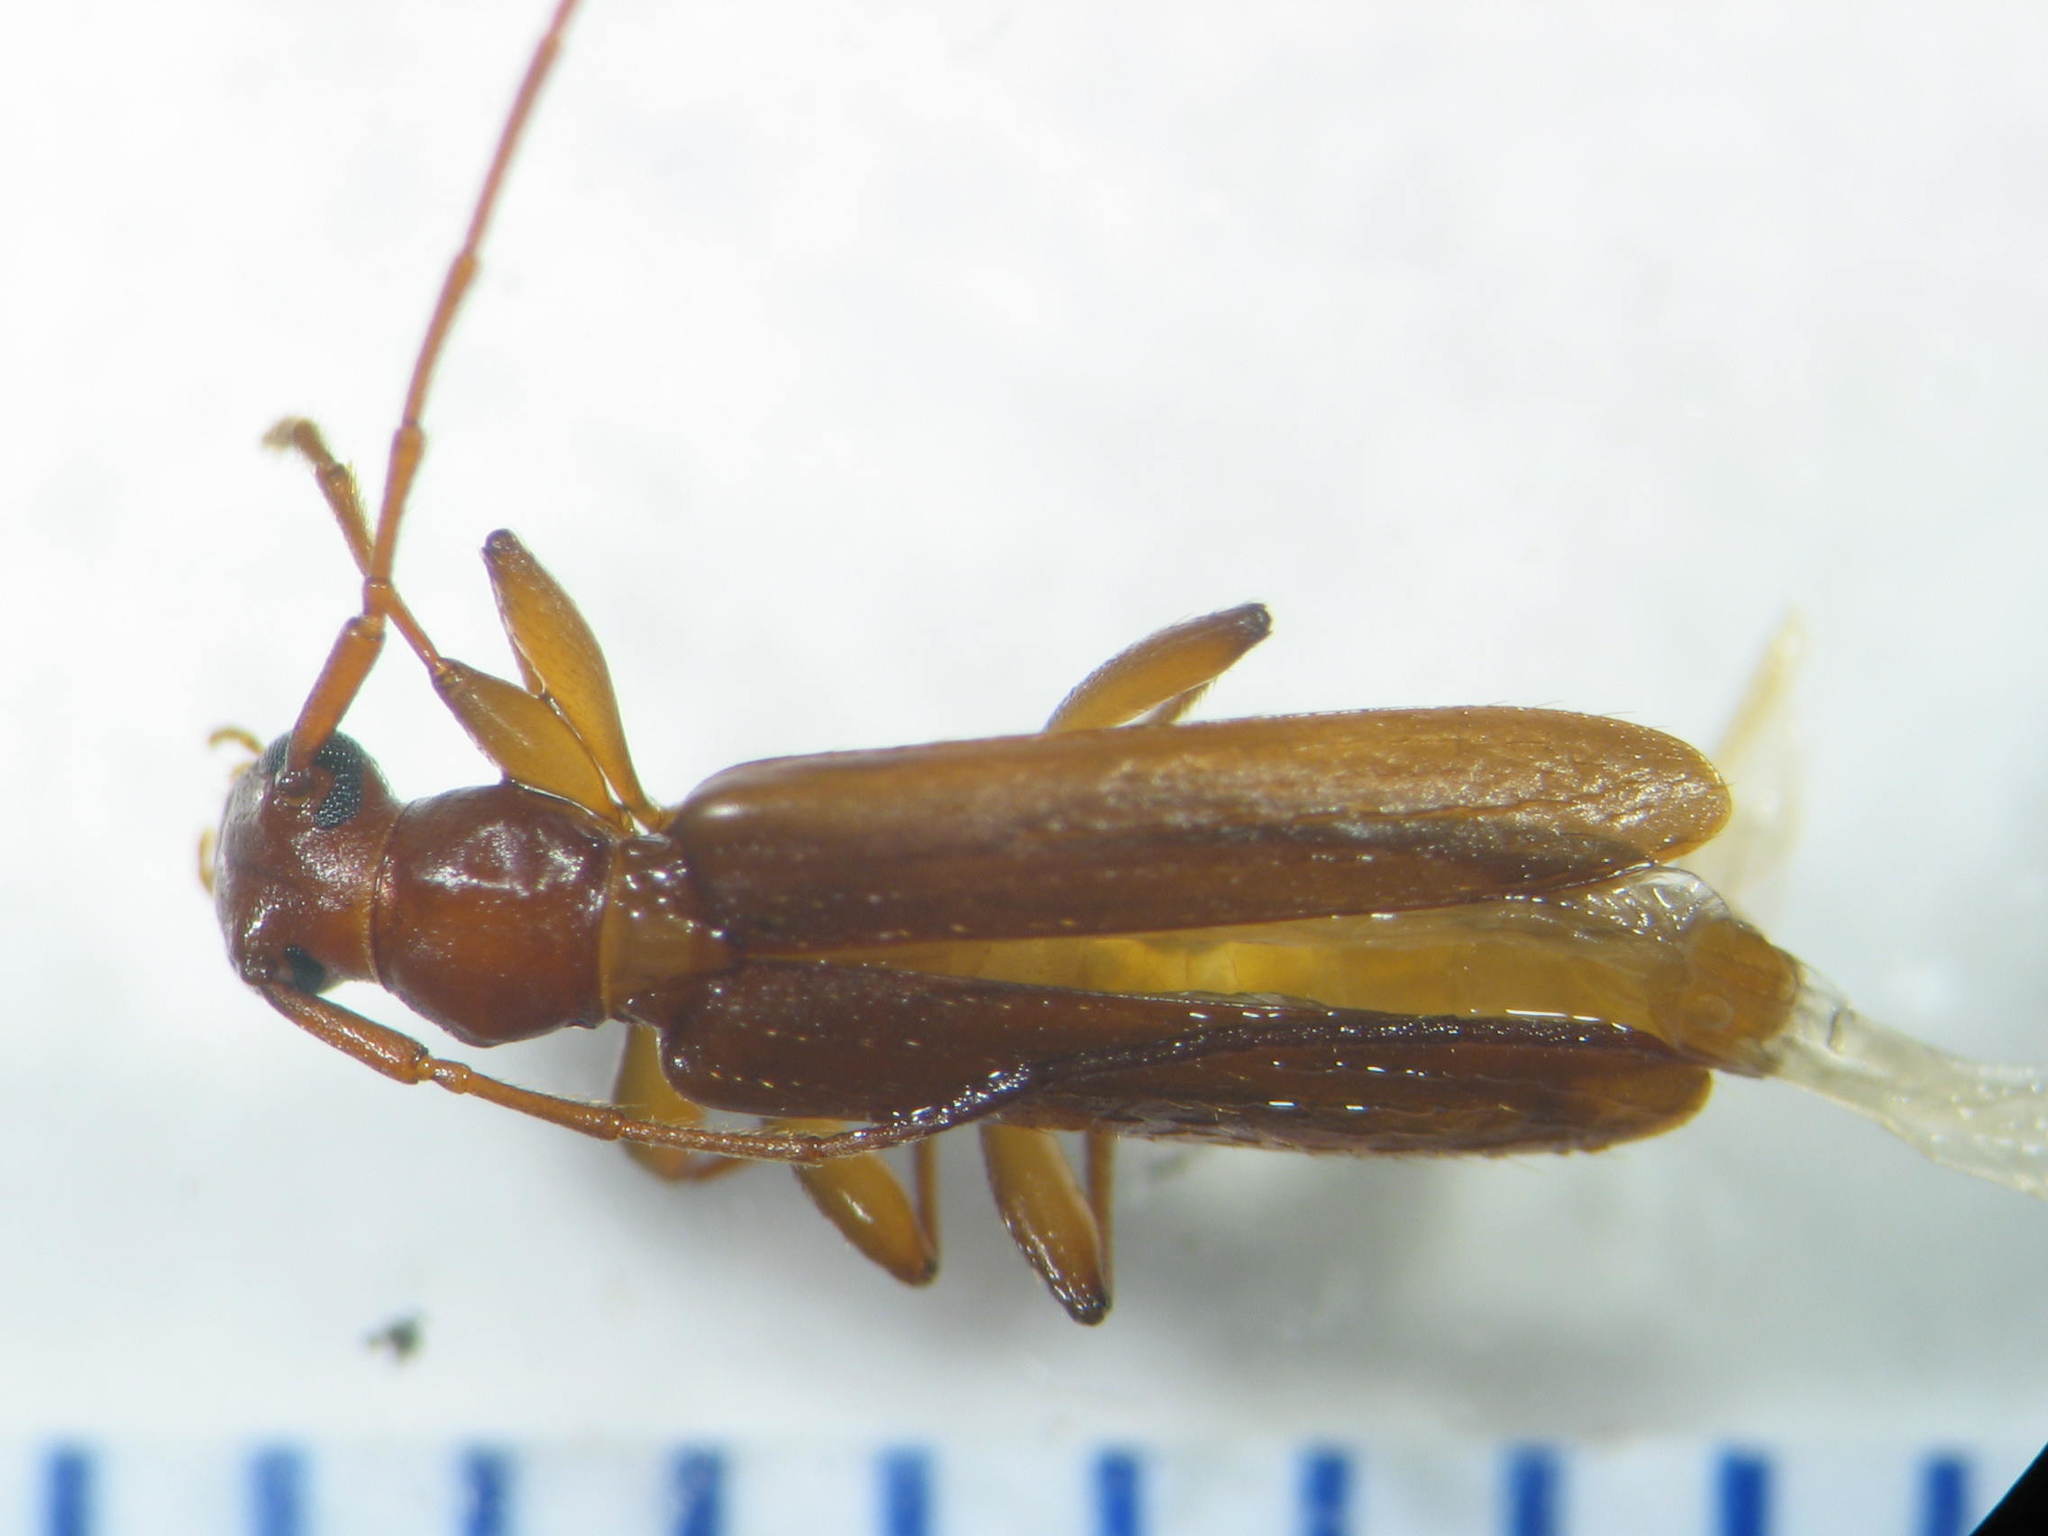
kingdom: Animalia
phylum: Arthropoda
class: Insecta
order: Coleoptera
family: Cerambycidae
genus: Notoceresium
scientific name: Notoceresium impressiceps
